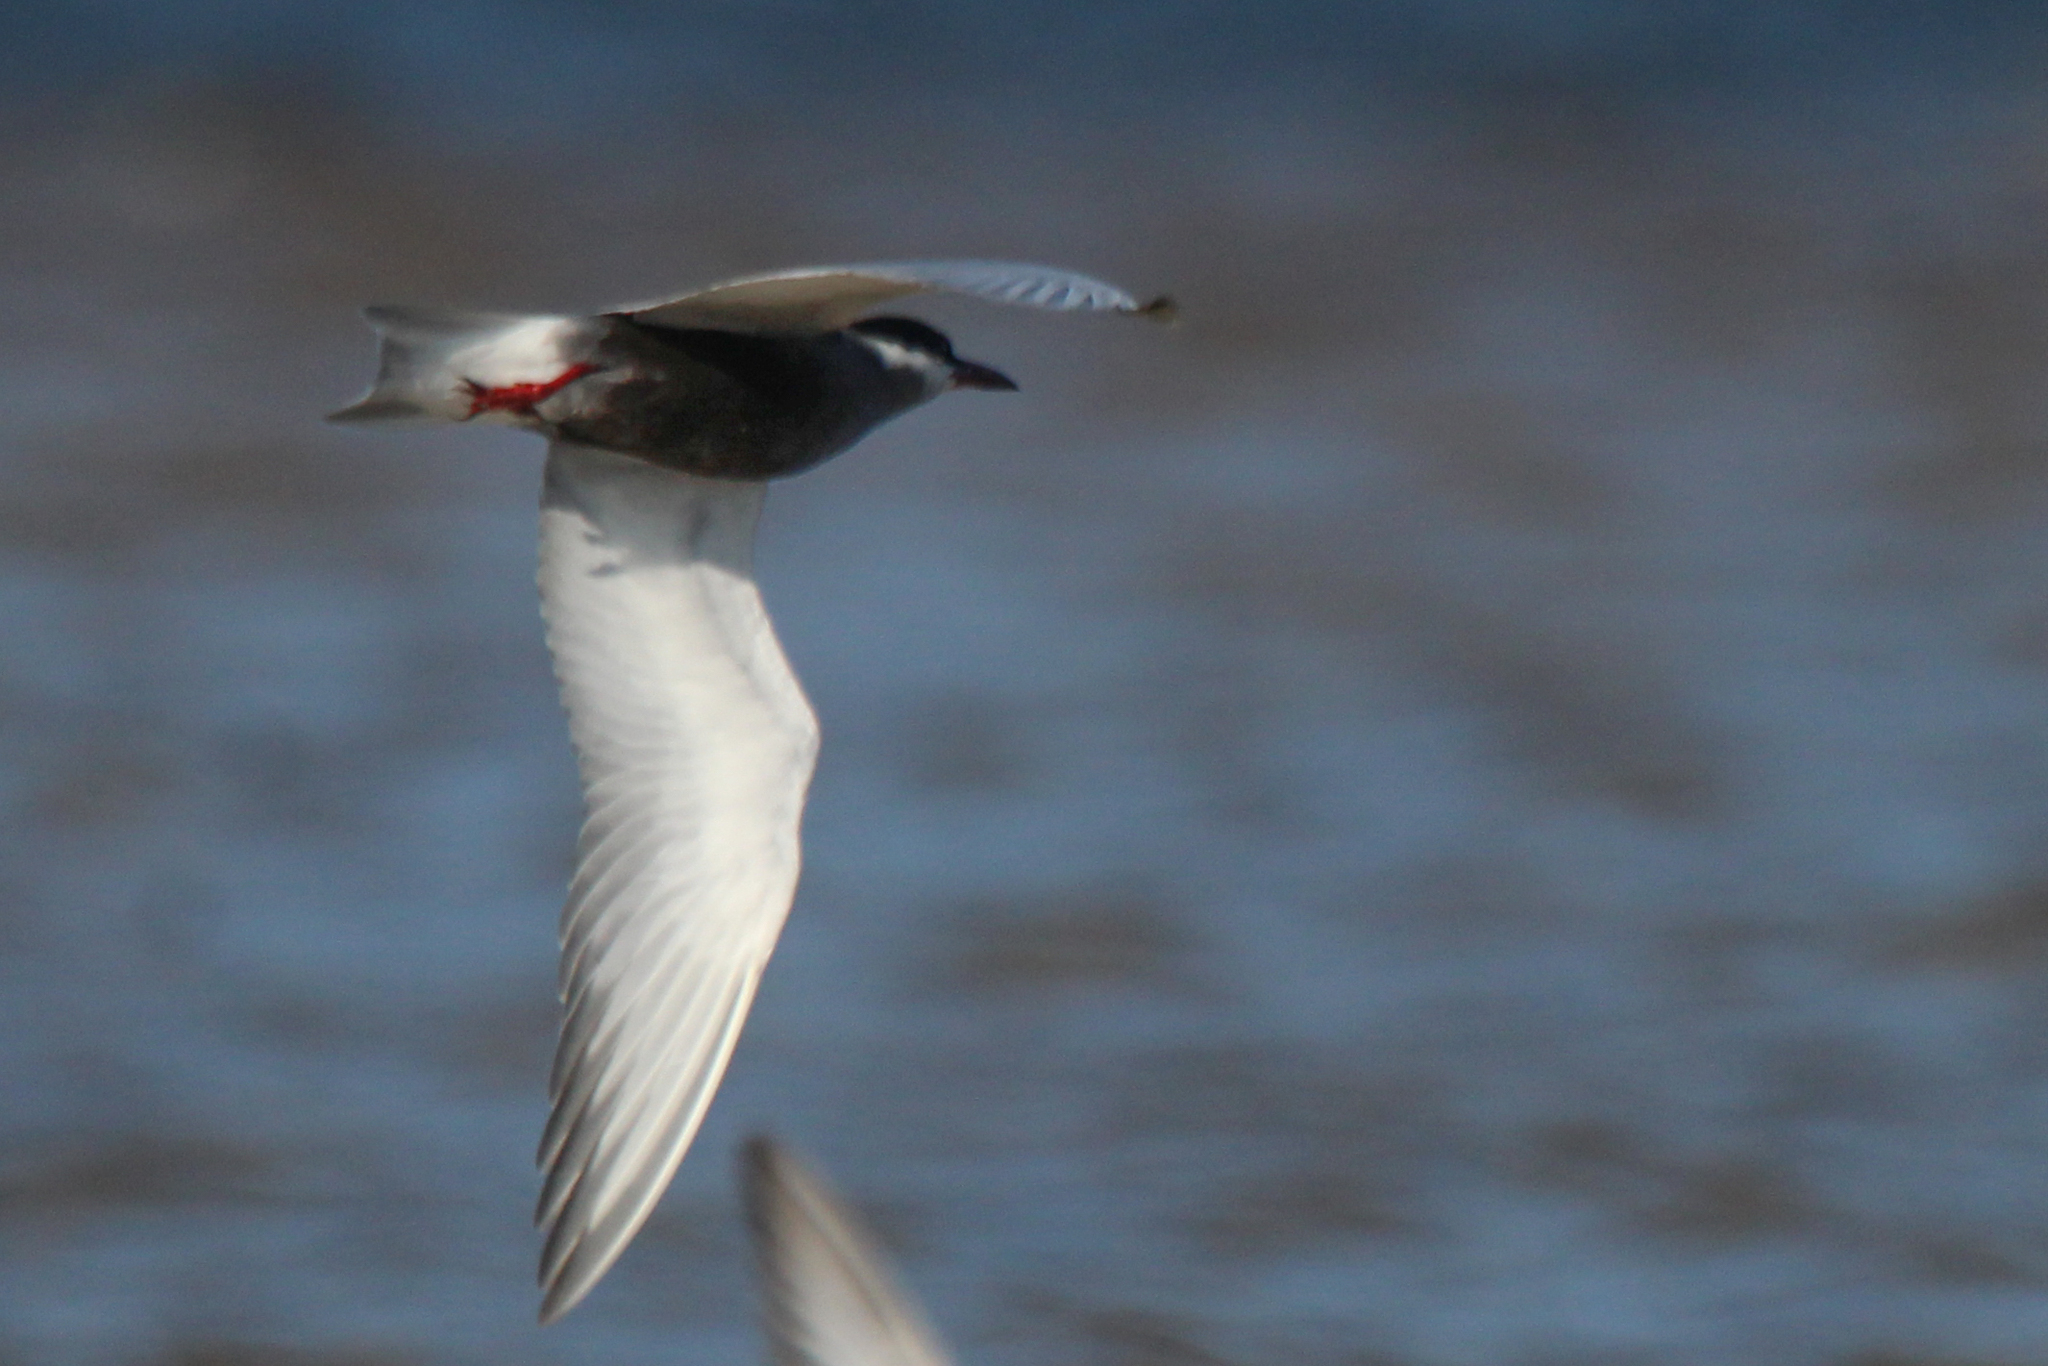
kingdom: Animalia
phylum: Chordata
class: Aves
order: Charadriiformes
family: Laridae
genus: Chlidonias
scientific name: Chlidonias hybrida
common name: Whiskered tern
